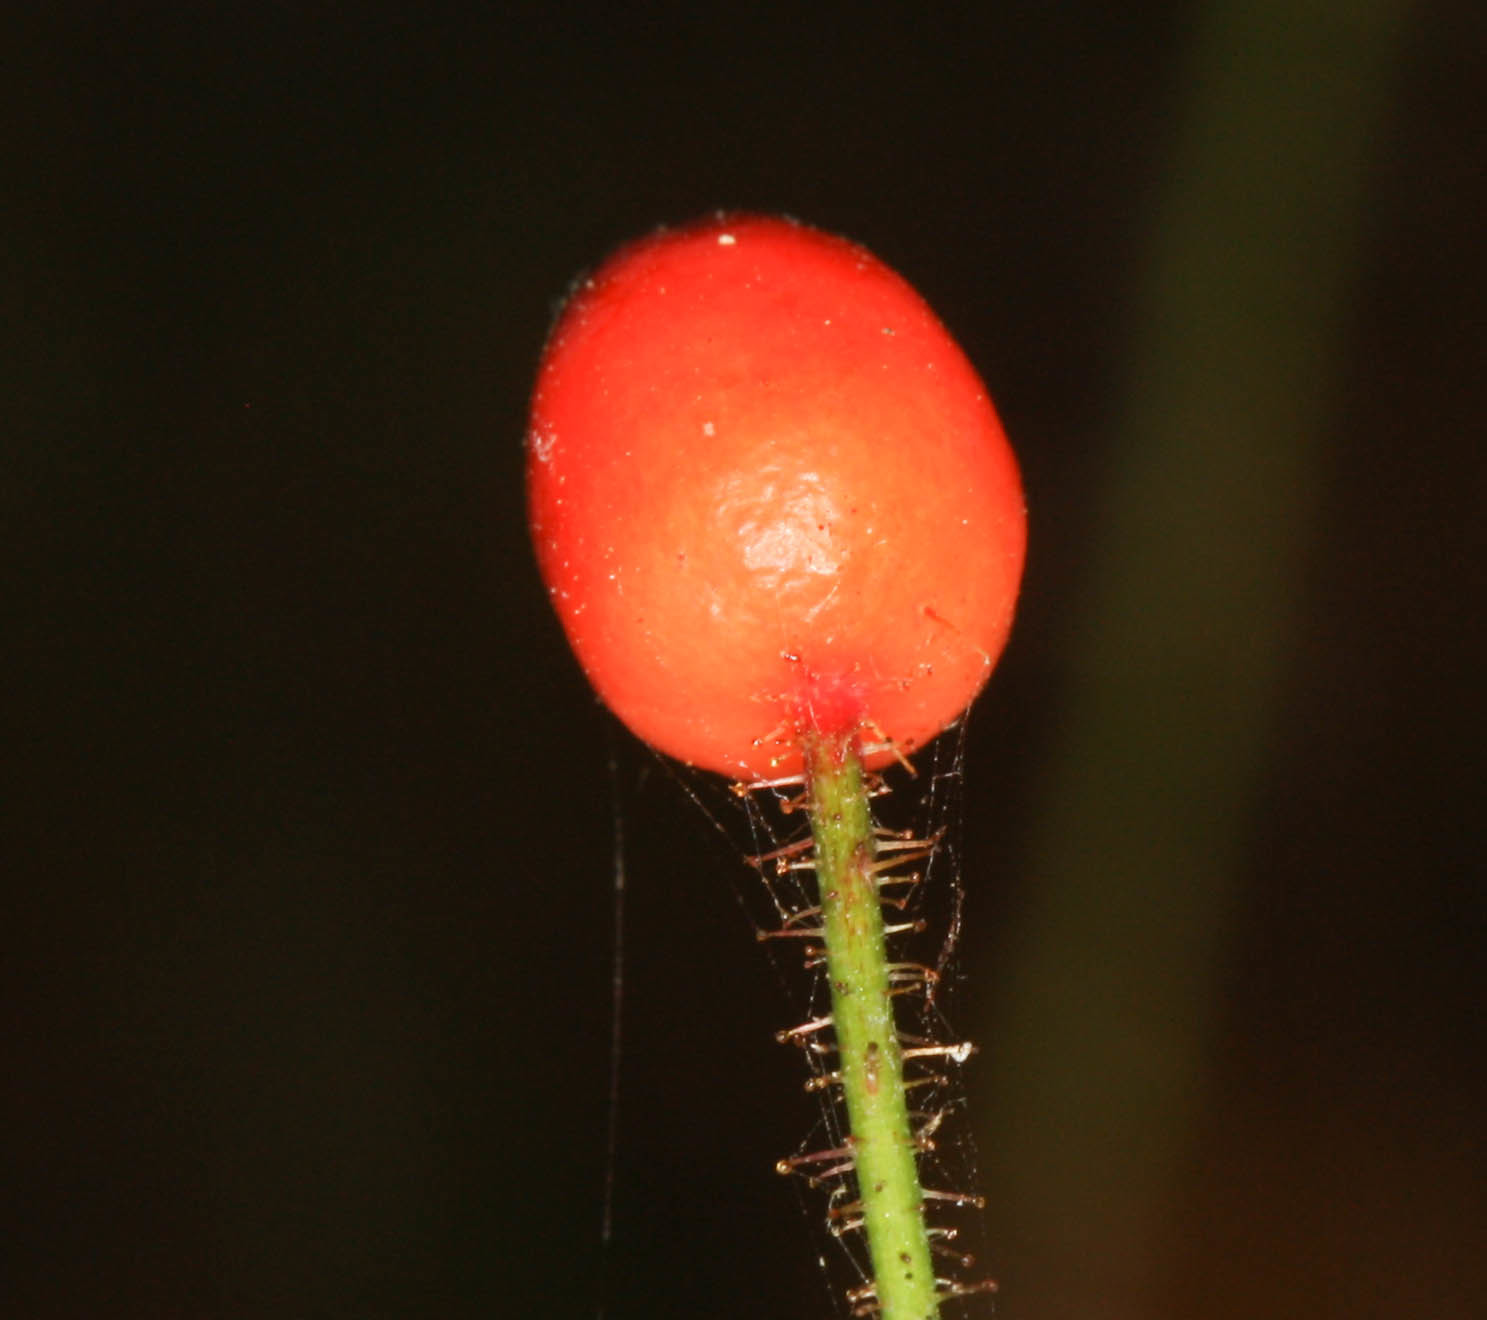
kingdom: Plantae
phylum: Tracheophyta
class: Magnoliopsida
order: Rosales
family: Rosaceae
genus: Rosa
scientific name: Rosa gymnocarpa
